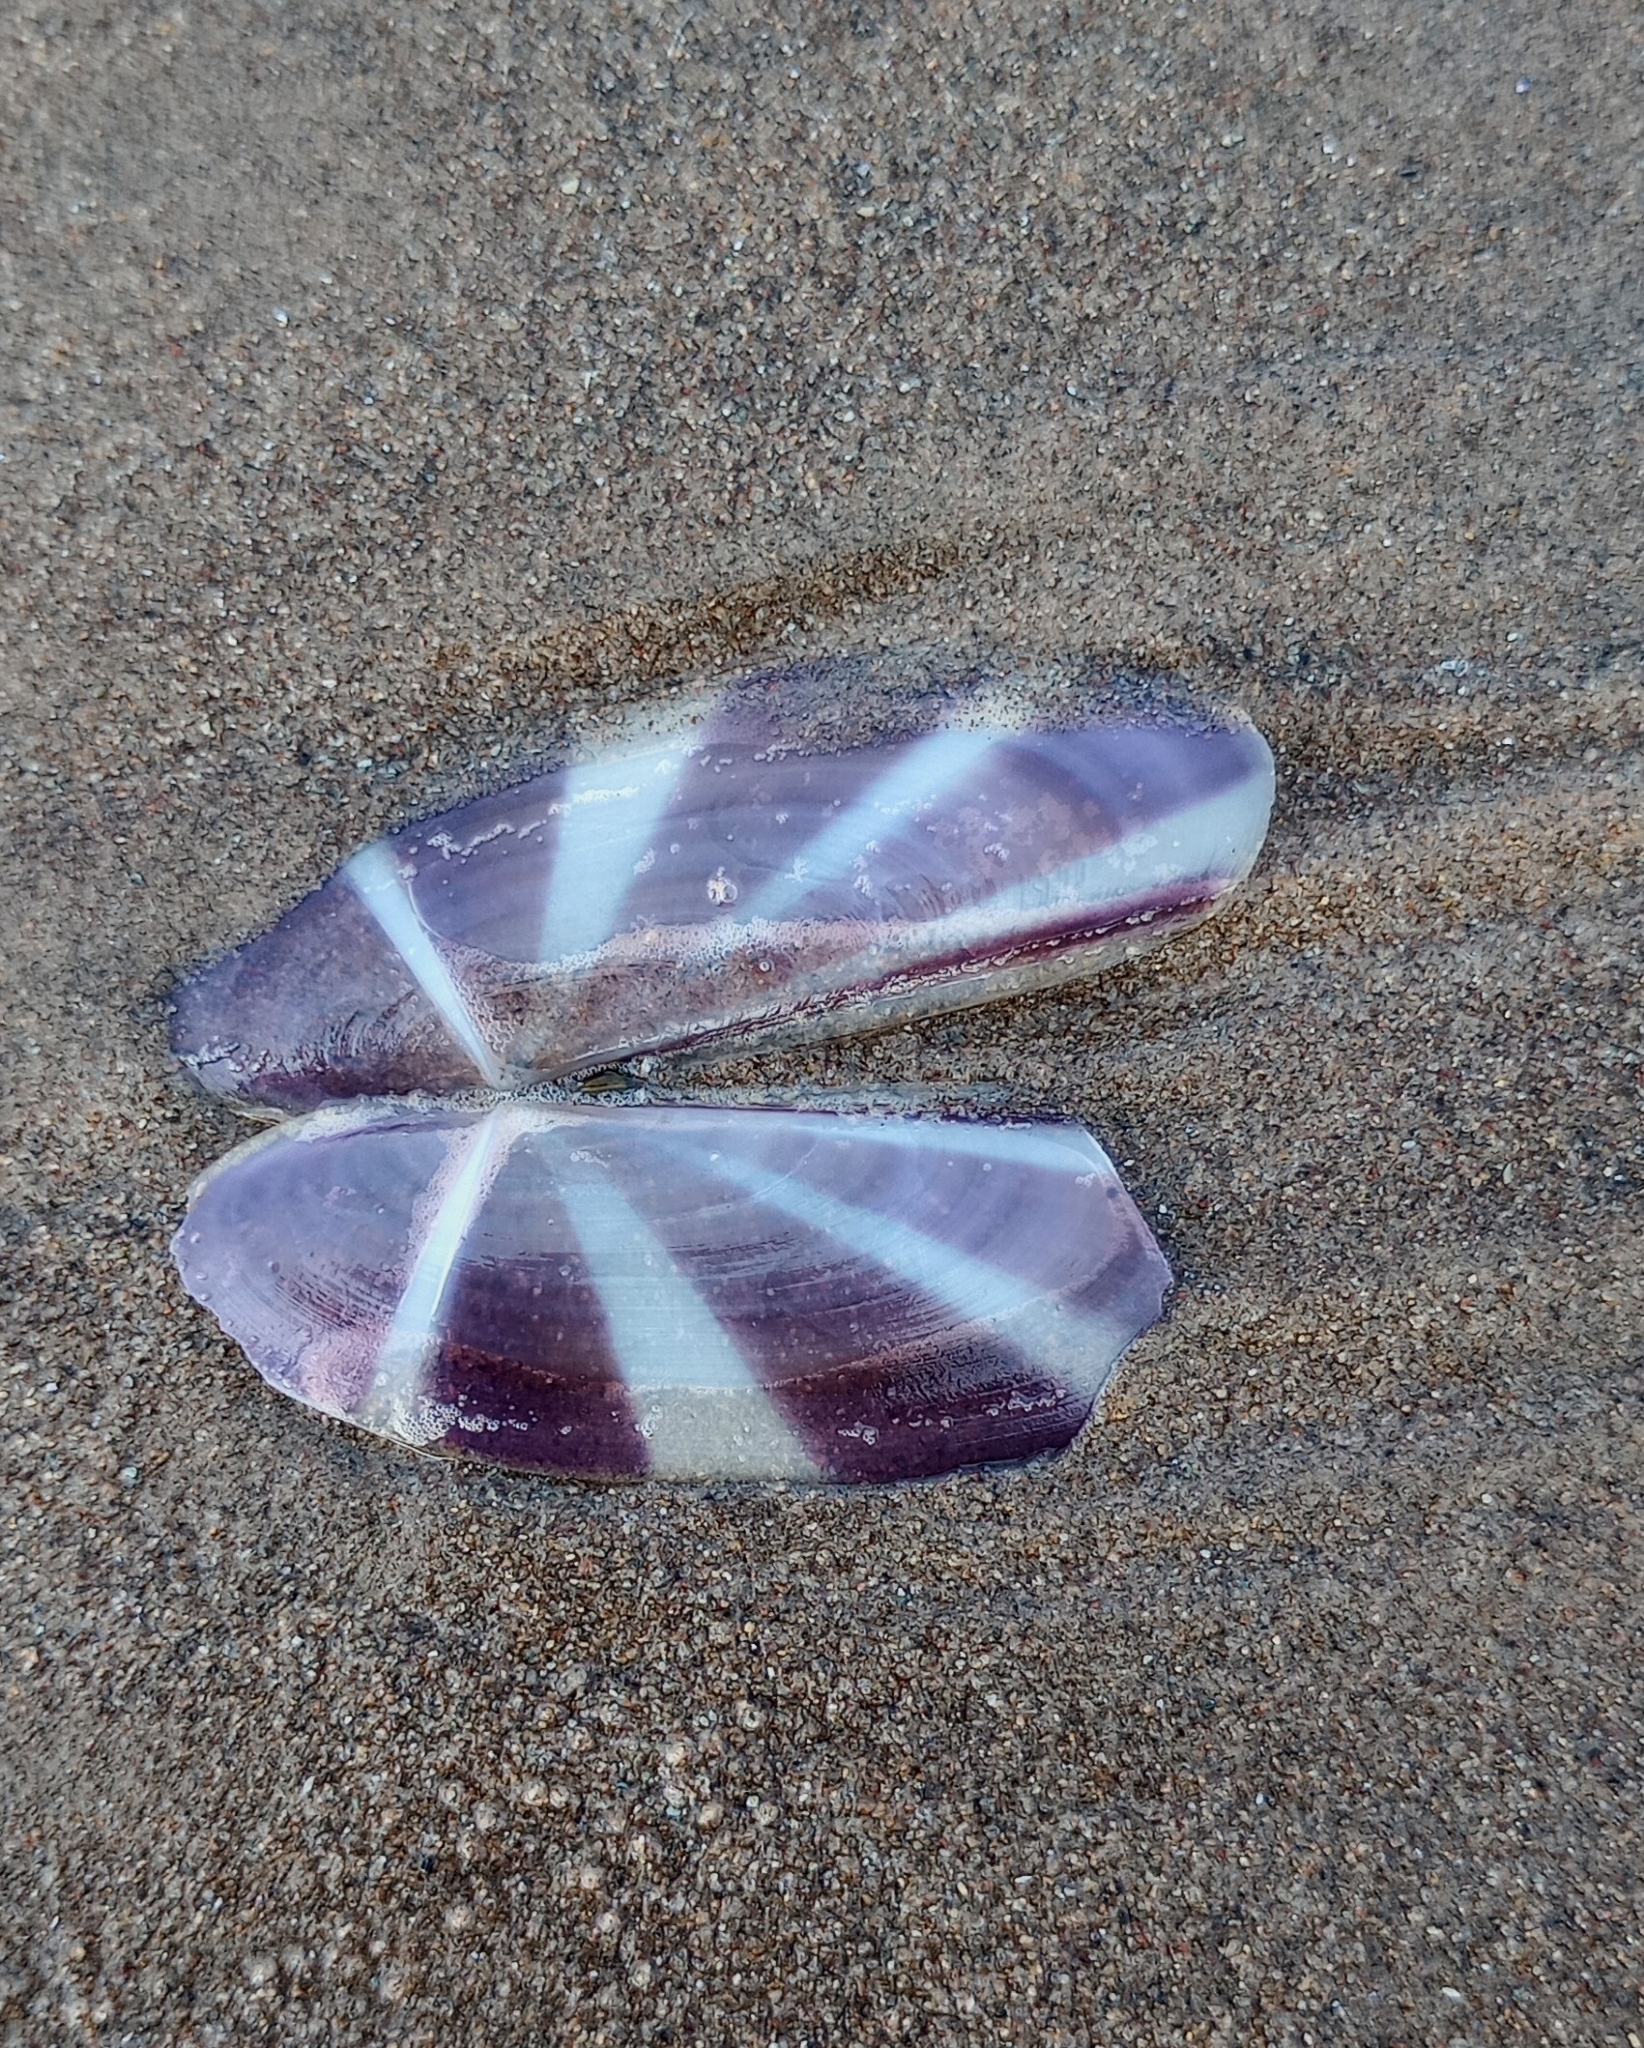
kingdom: Animalia
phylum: Mollusca
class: Bivalvia
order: Adapedonta
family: Pharidae
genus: Siliqua
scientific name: Siliqua radiata
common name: Sunset razor clam
